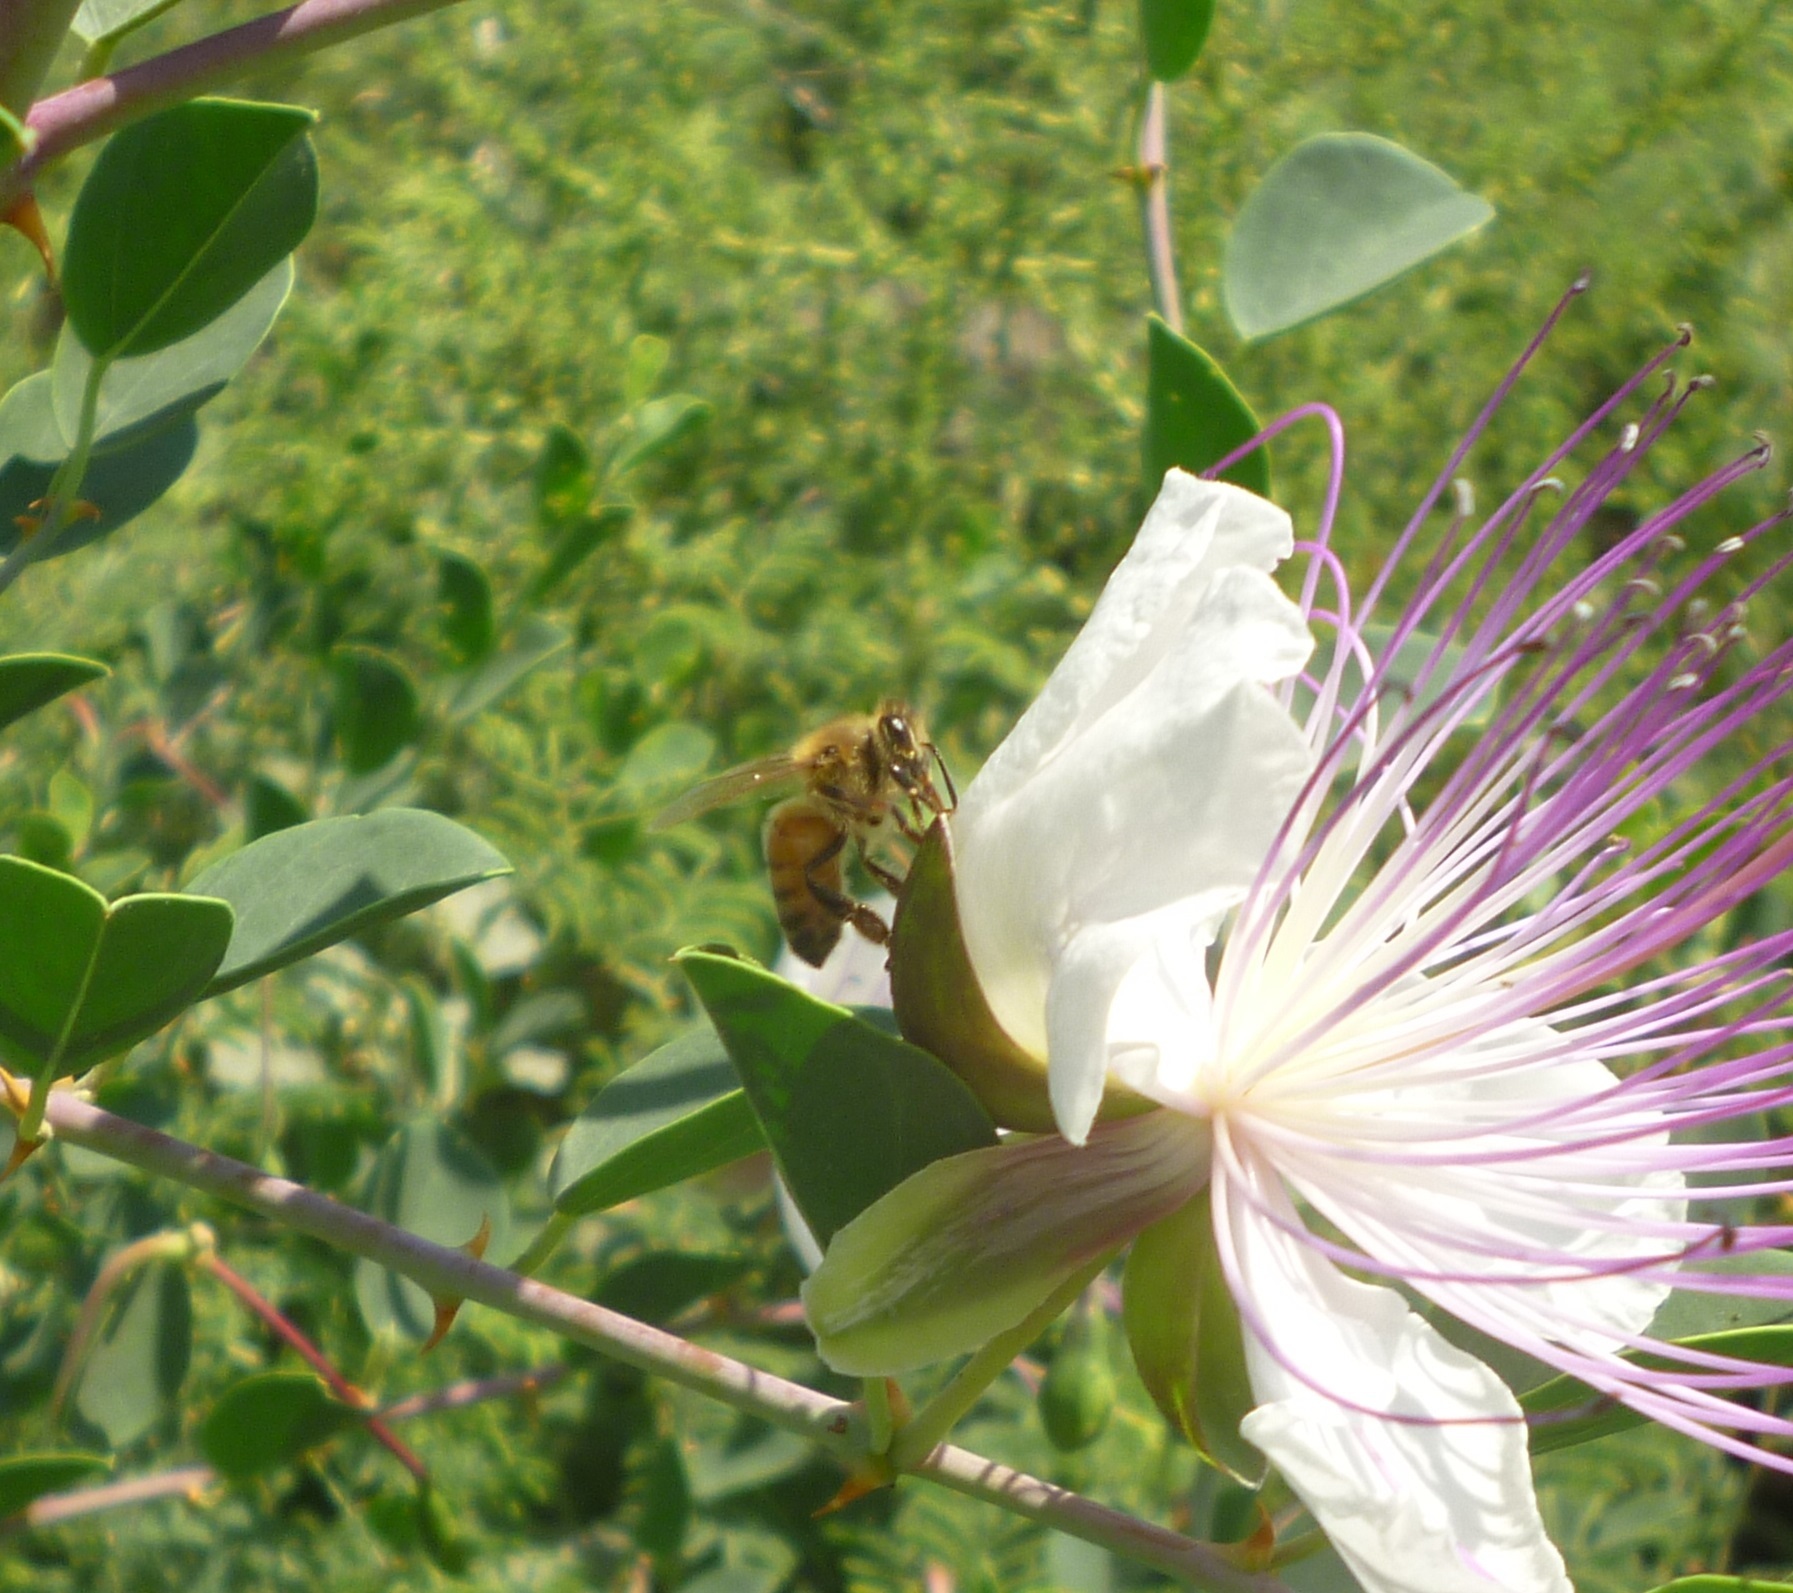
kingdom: Animalia
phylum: Arthropoda
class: Insecta
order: Hymenoptera
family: Apidae
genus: Apis
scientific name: Apis mellifera
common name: Honey bee
